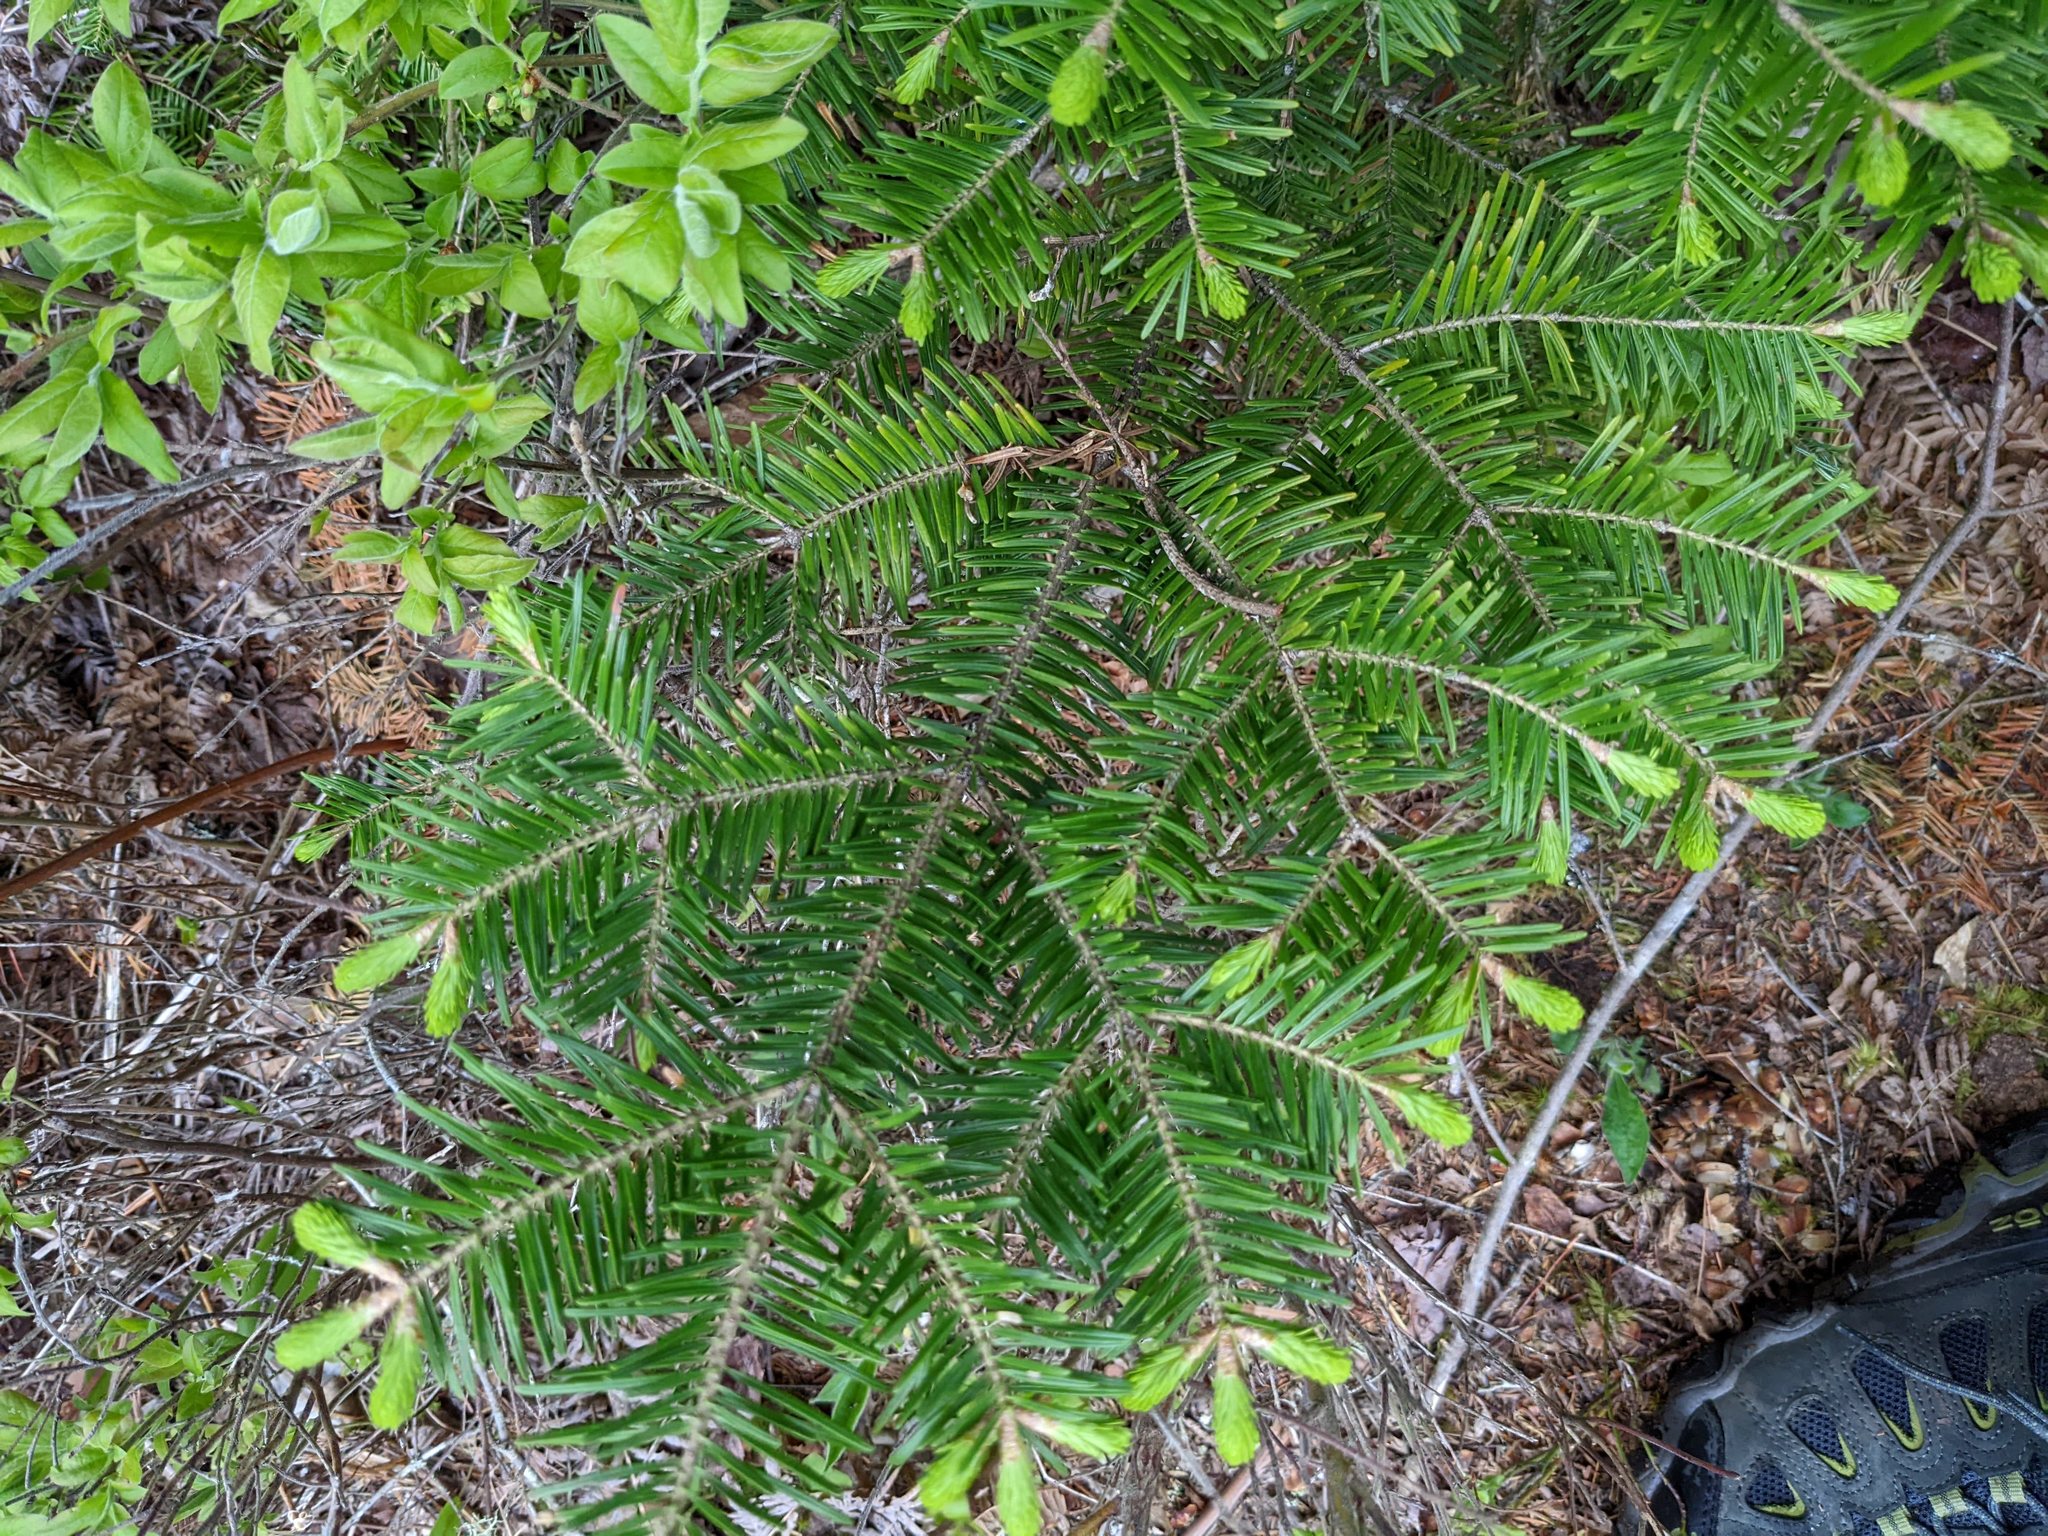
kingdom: Plantae
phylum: Tracheophyta
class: Pinopsida
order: Pinales
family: Pinaceae
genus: Abies
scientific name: Abies balsamea
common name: Balsam fir
